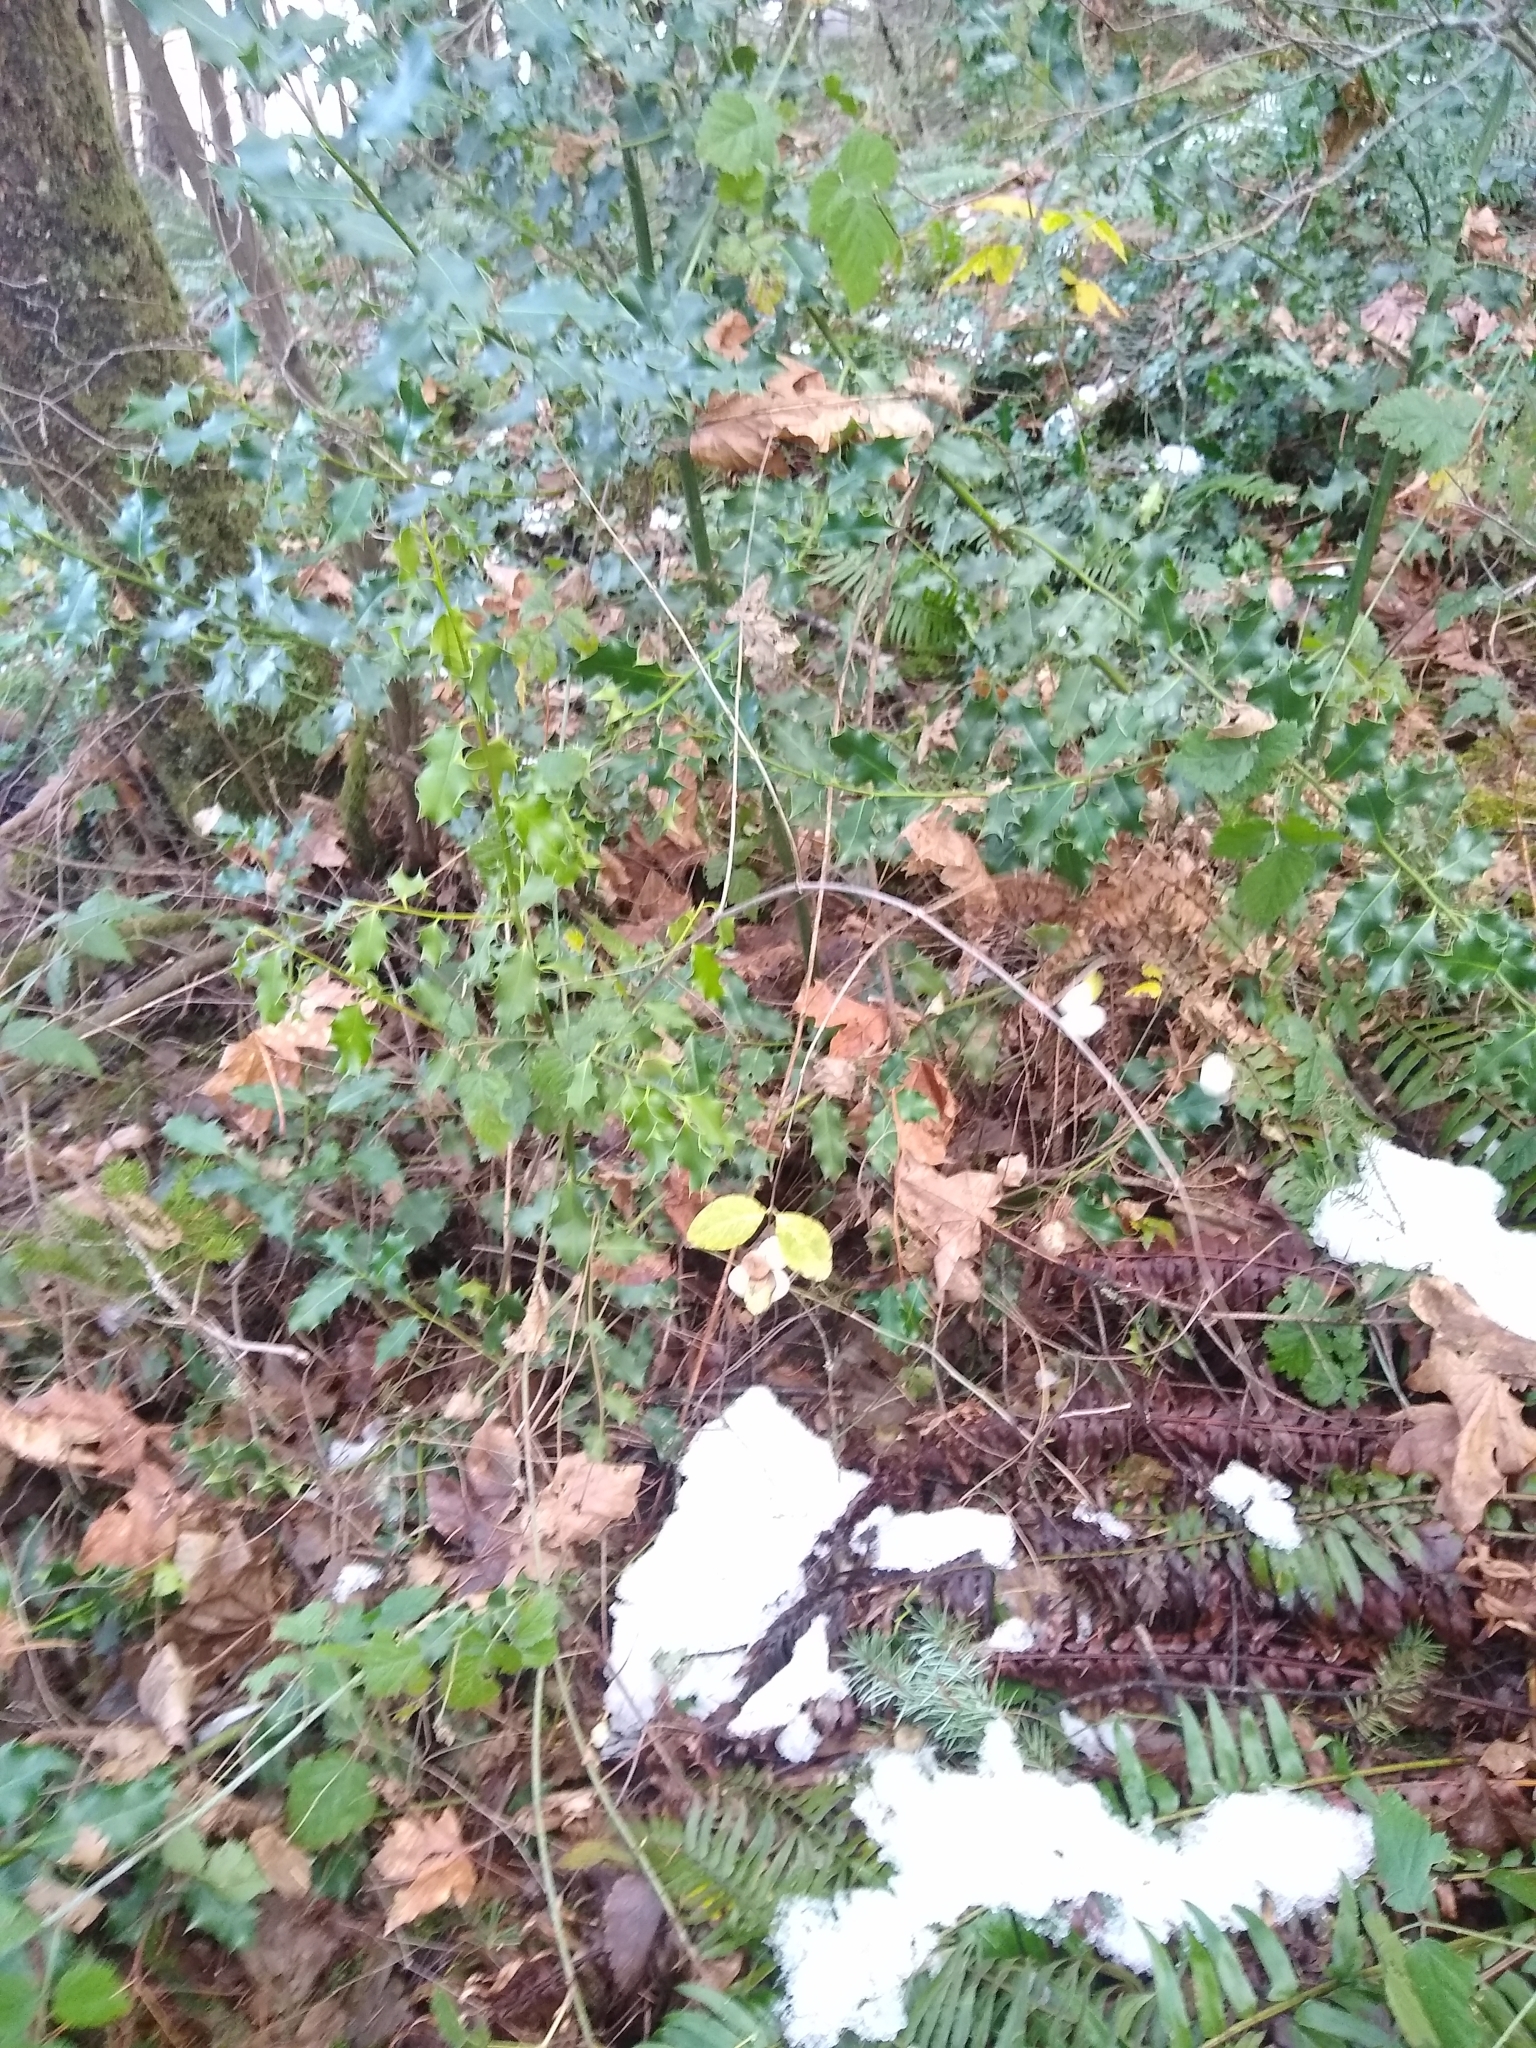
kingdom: Plantae
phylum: Tracheophyta
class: Magnoliopsida
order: Dipsacales
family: Caprifoliaceae
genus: Symphoricarpos
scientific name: Symphoricarpos albus
